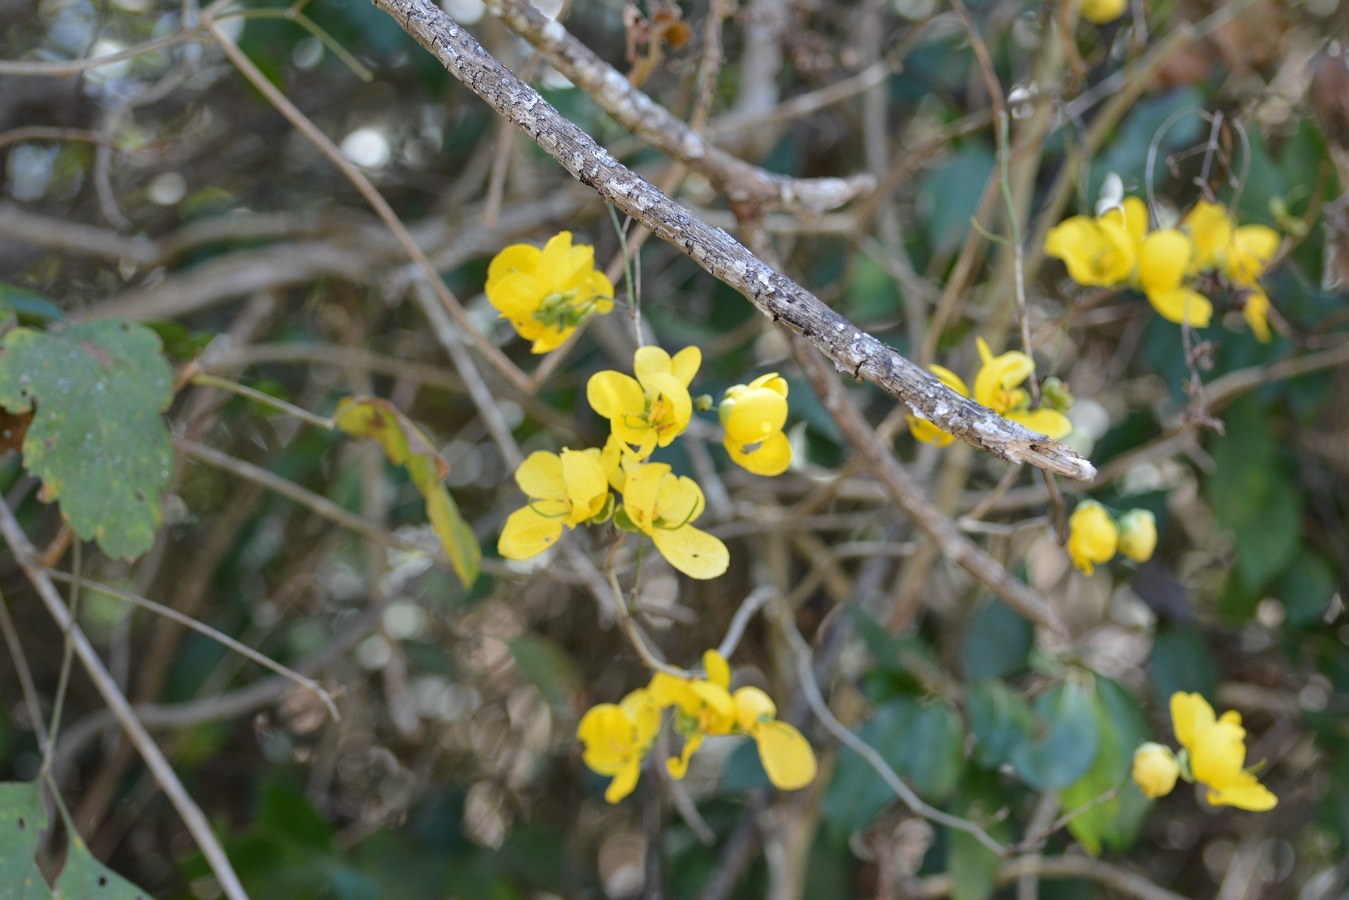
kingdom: Plantae
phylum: Tracheophyta
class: Magnoliopsida
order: Fabales
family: Fabaceae
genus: Senna
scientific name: Senna pilifera
